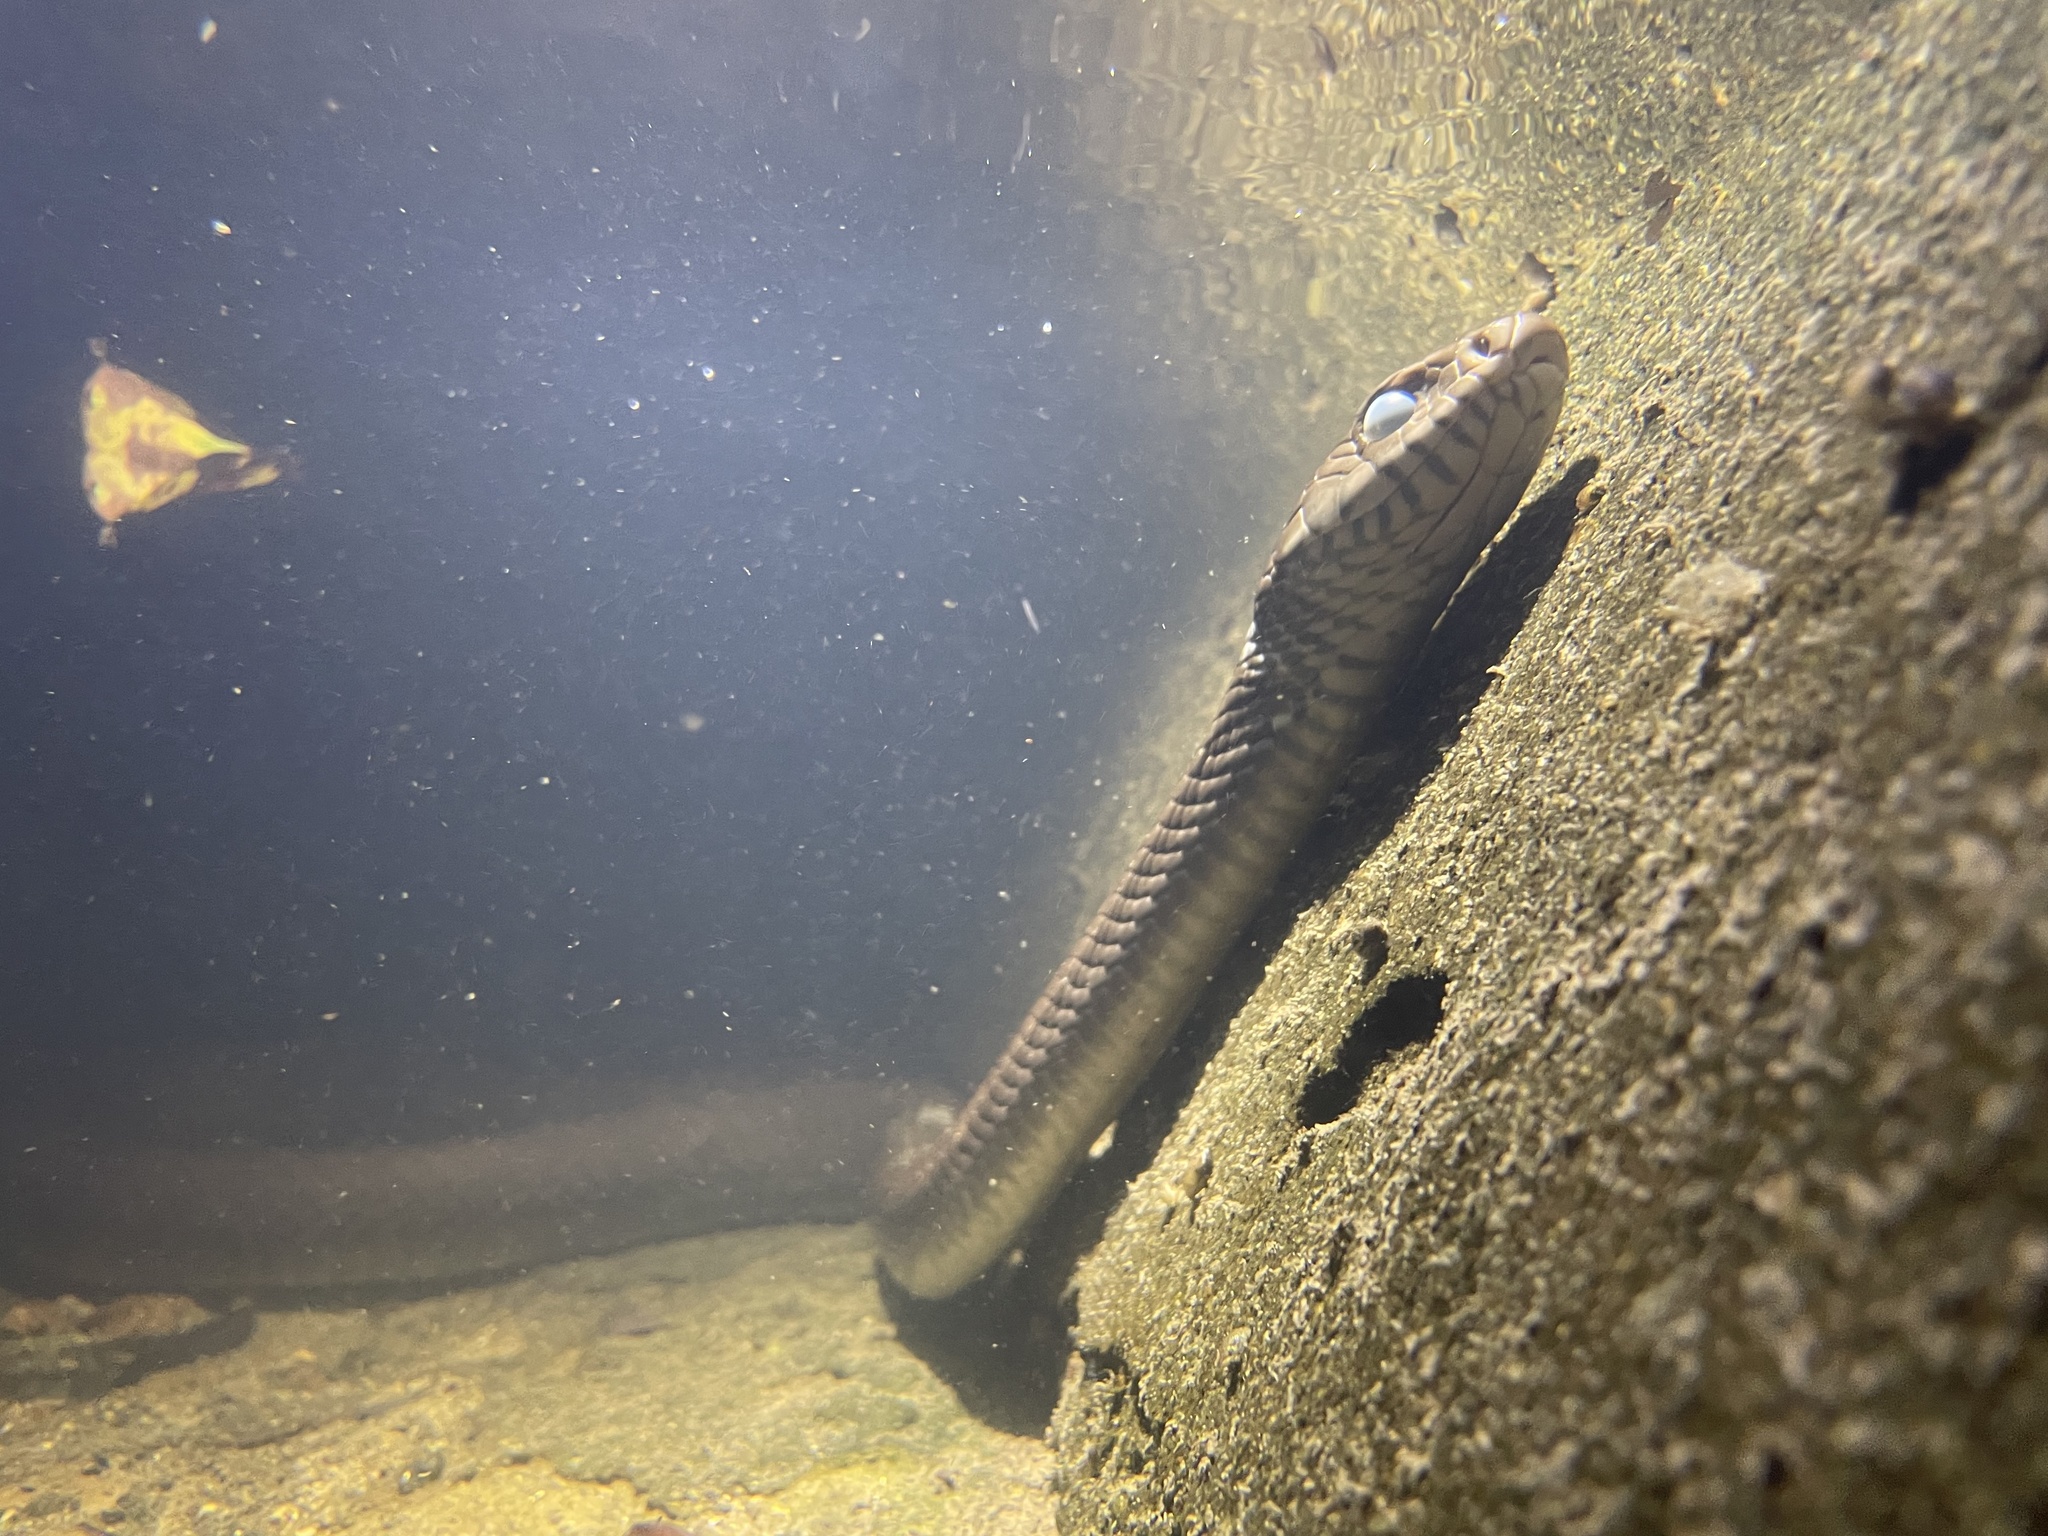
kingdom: Animalia
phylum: Chordata
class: Squamata
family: Colubridae
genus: Ptyas
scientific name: Ptyas mucosa
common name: Oriental ratsnake
